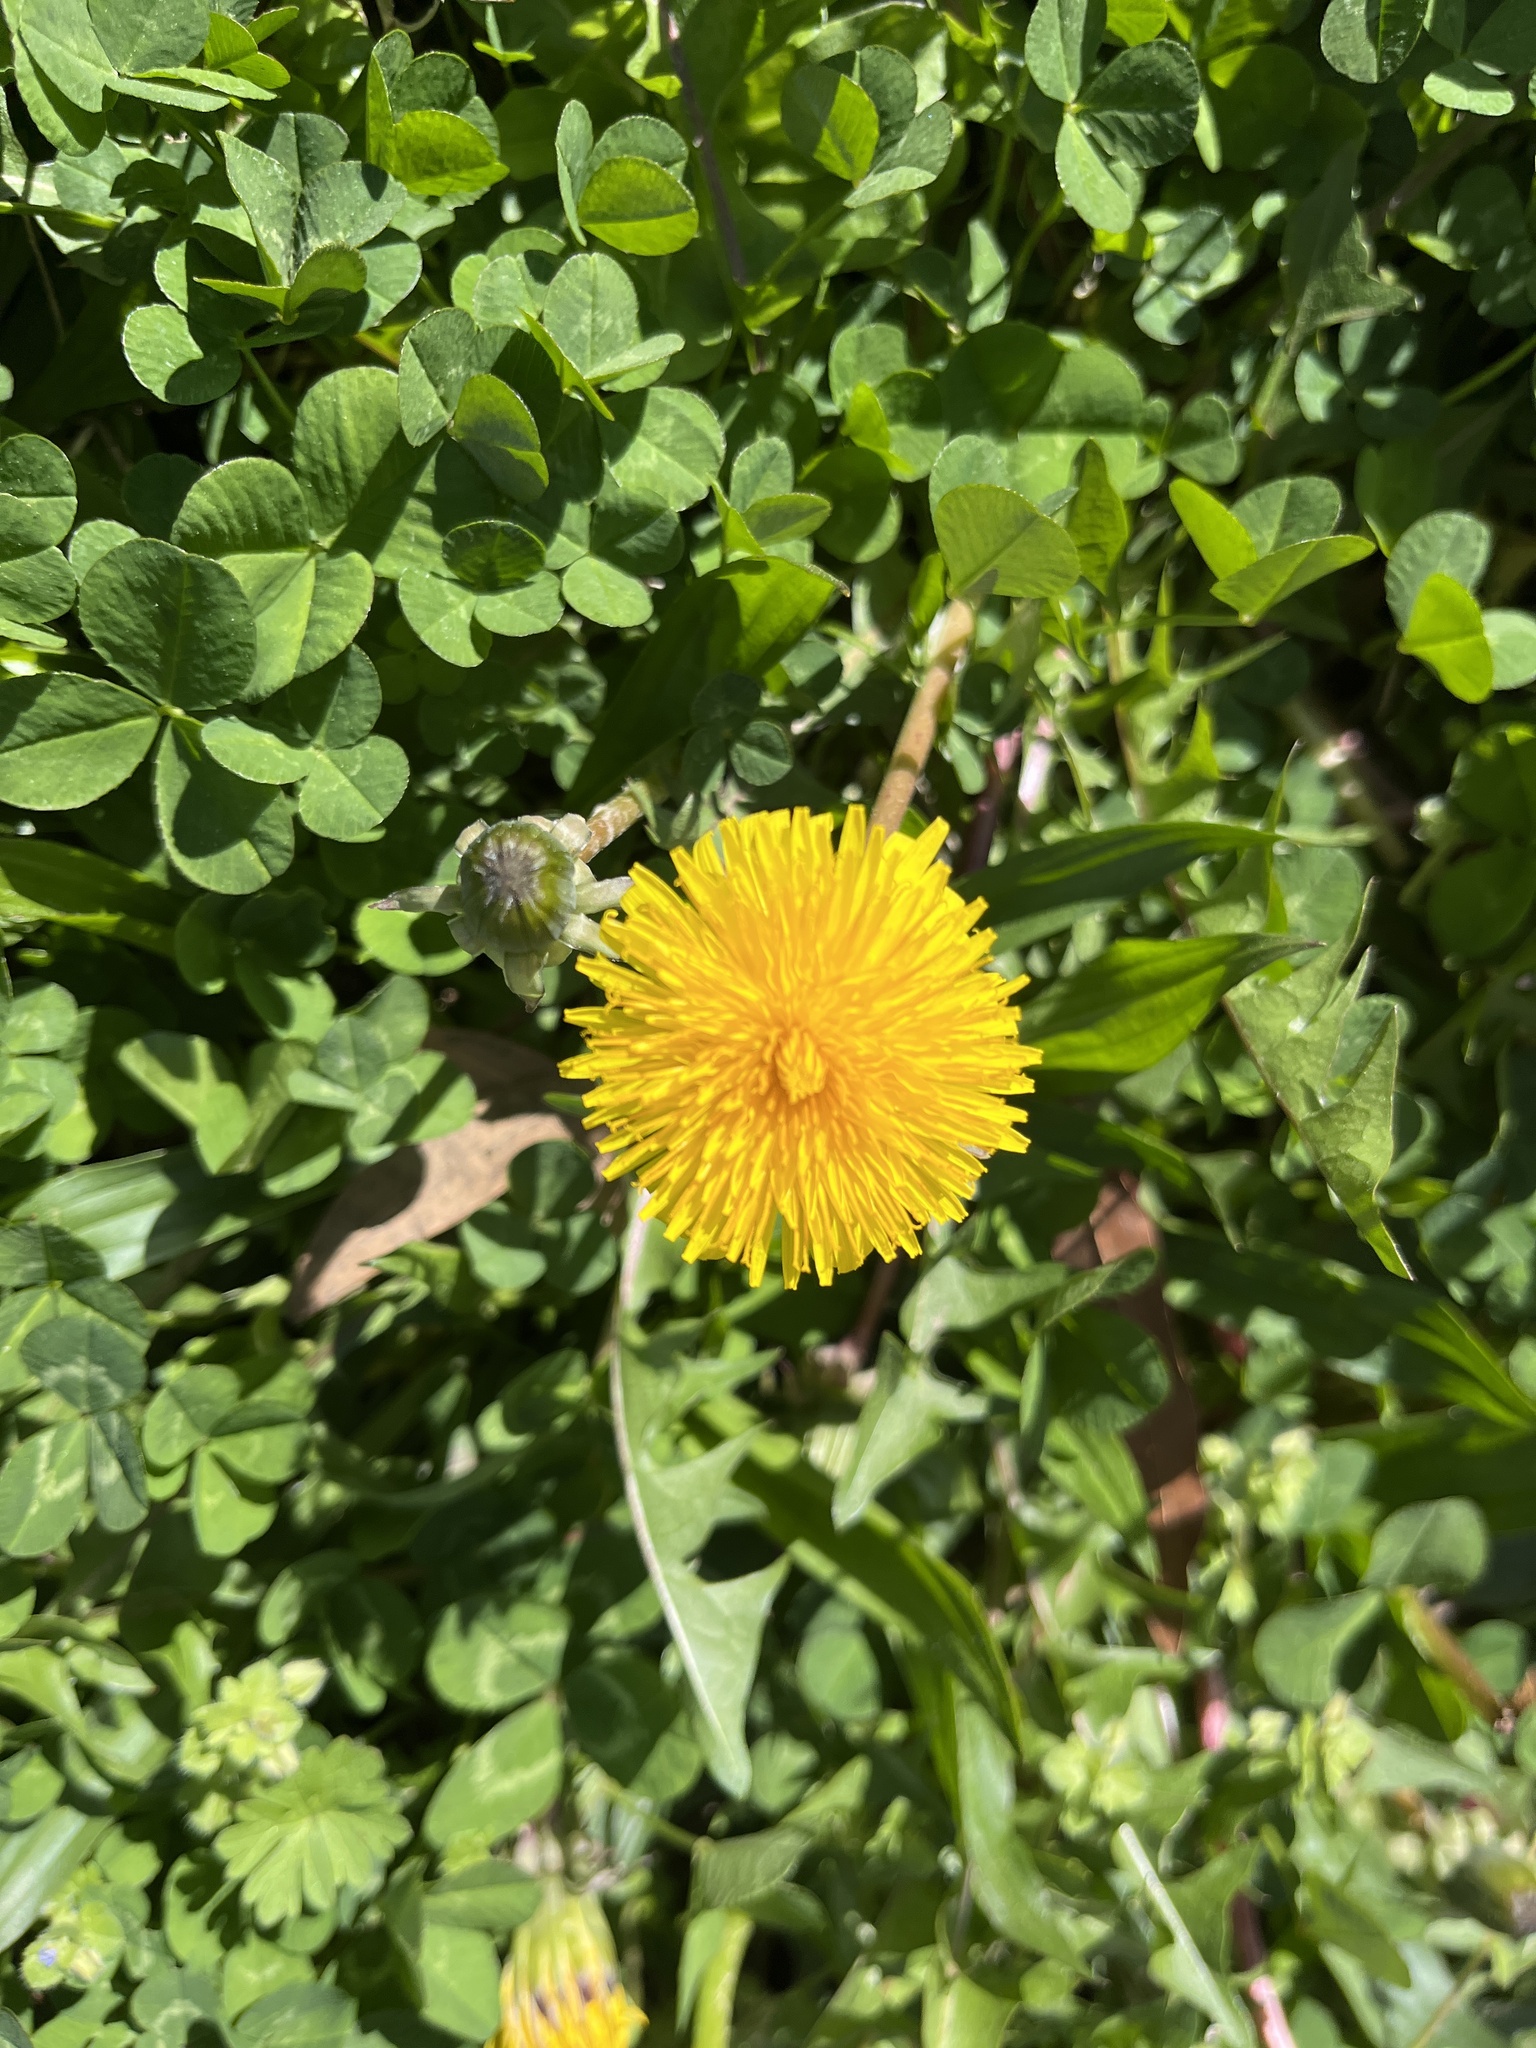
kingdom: Plantae
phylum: Tracheophyta
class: Magnoliopsida
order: Asterales
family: Asteraceae
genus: Taraxacum
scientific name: Taraxacum
